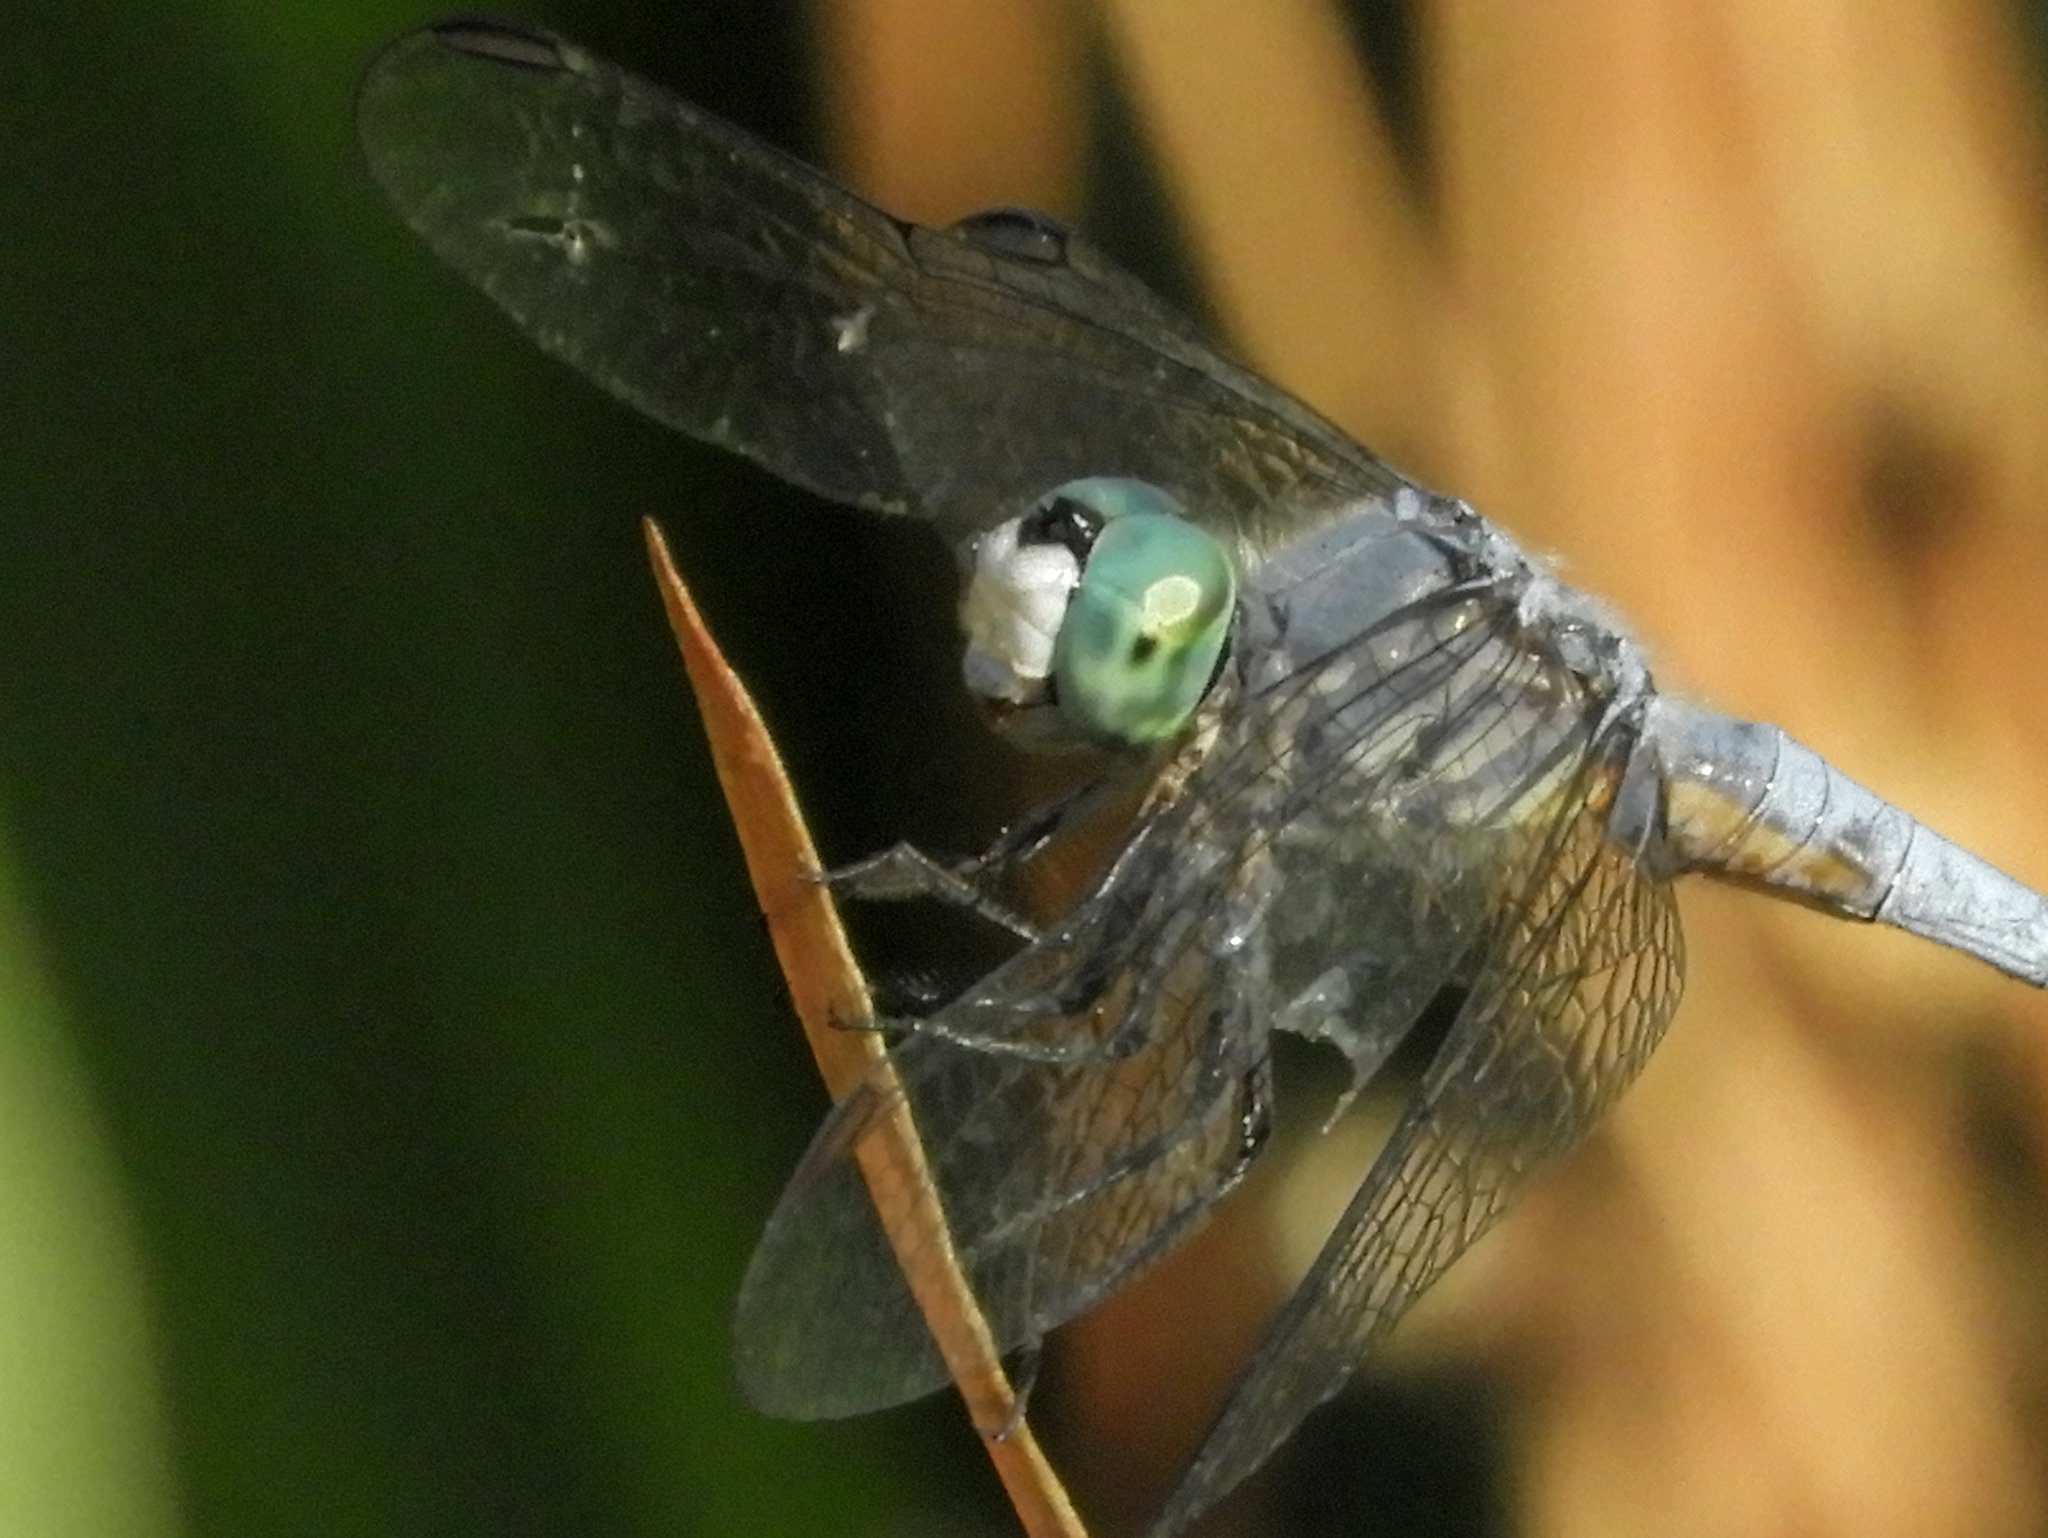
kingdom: Animalia
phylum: Arthropoda
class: Insecta
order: Odonata
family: Libellulidae
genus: Pachydiplax
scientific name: Pachydiplax longipennis
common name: Blue dasher
